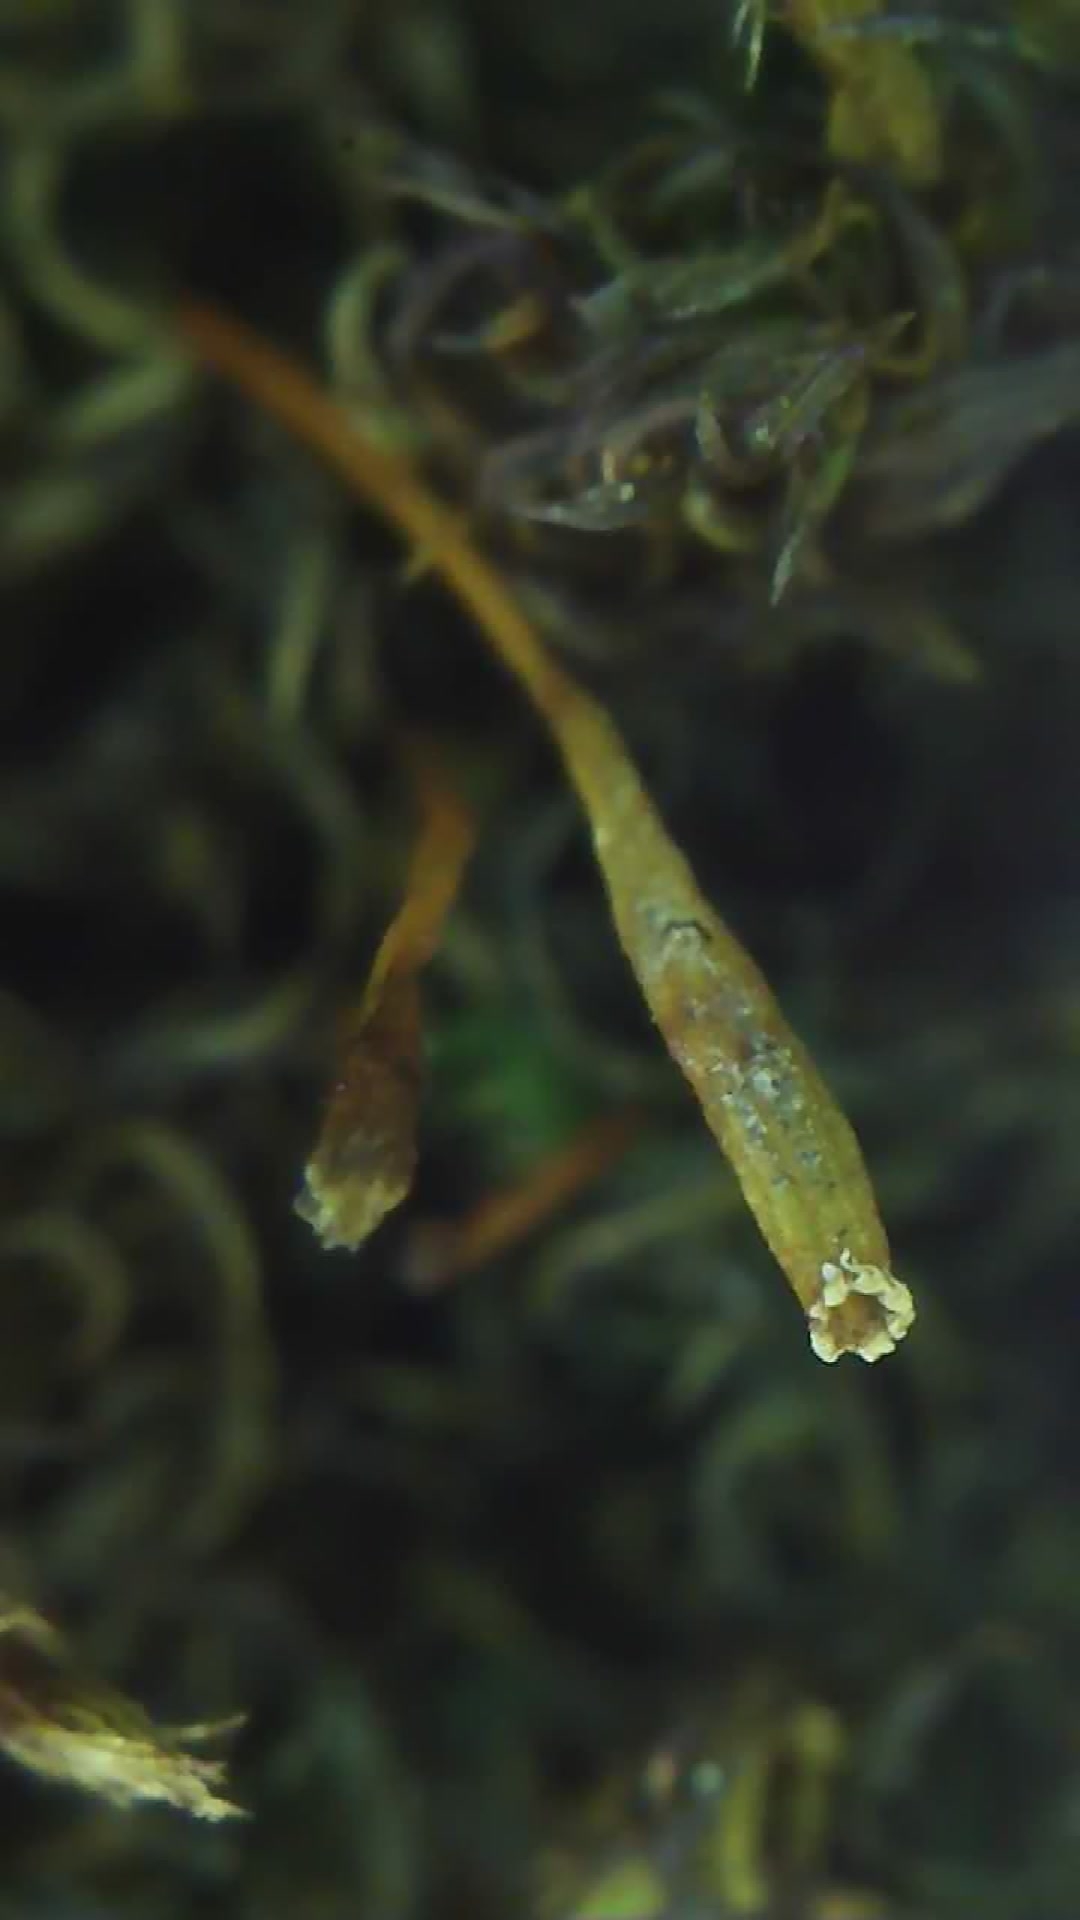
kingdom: Plantae
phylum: Bryophyta
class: Bryopsida
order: Orthotrichales
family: Orthotrichaceae
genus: Ulota
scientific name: Ulota bruchii
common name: Bruch's pincushion
